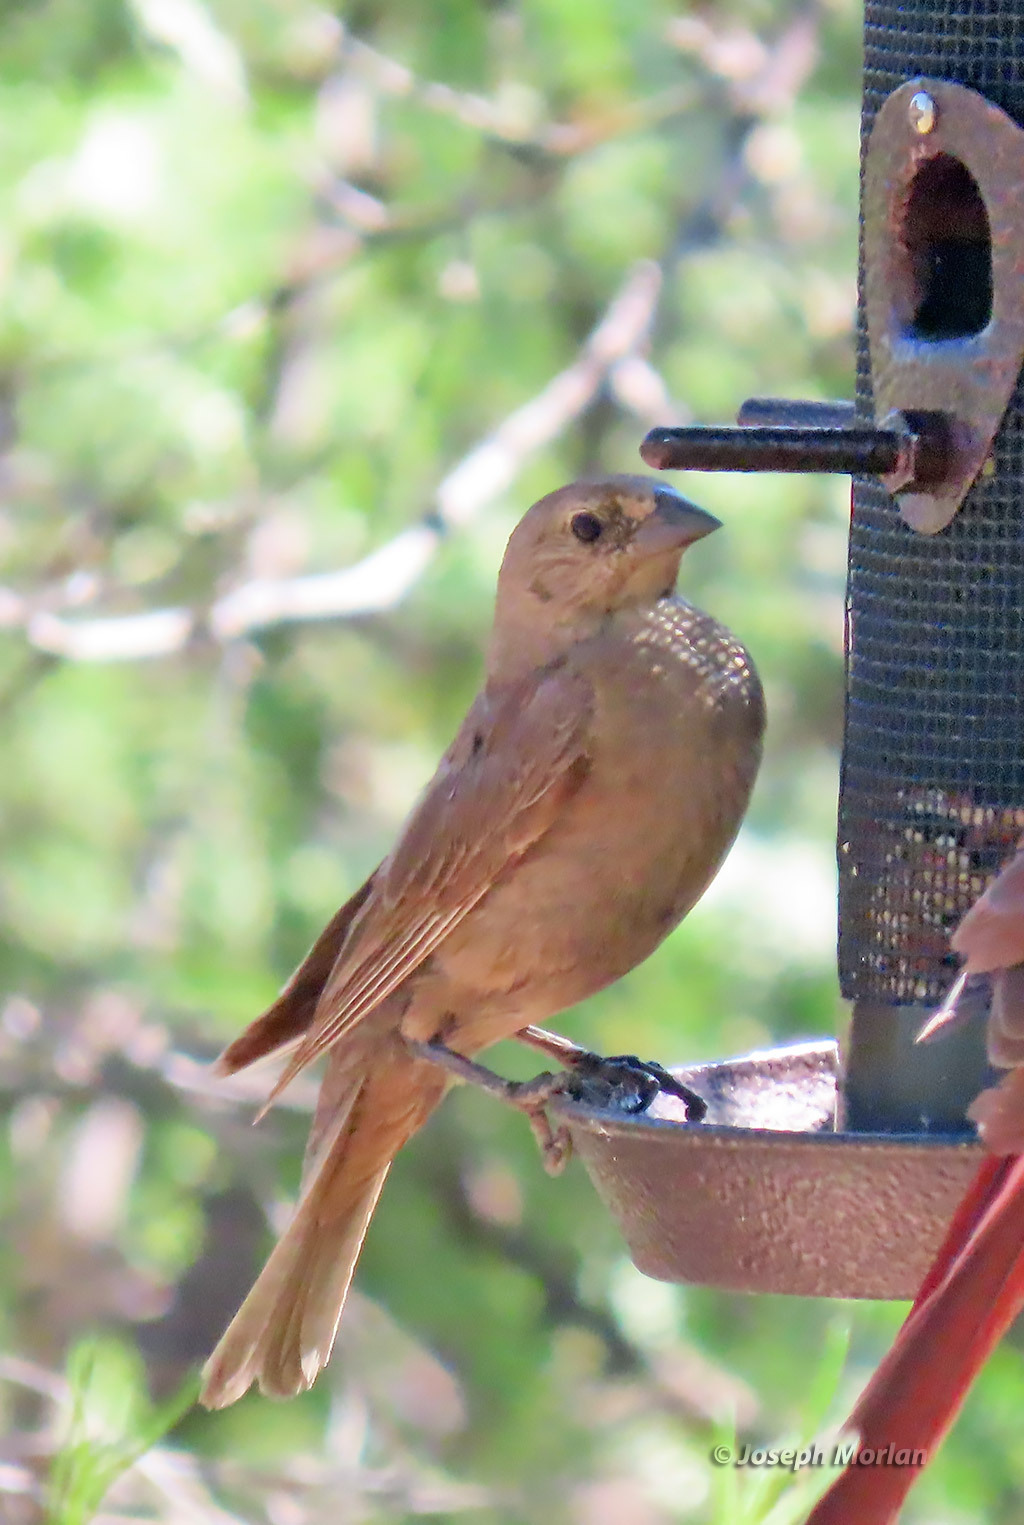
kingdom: Animalia
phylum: Chordata
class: Aves
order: Passeriformes
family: Icteridae
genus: Molothrus
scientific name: Molothrus ater
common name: Brown-headed cowbird
